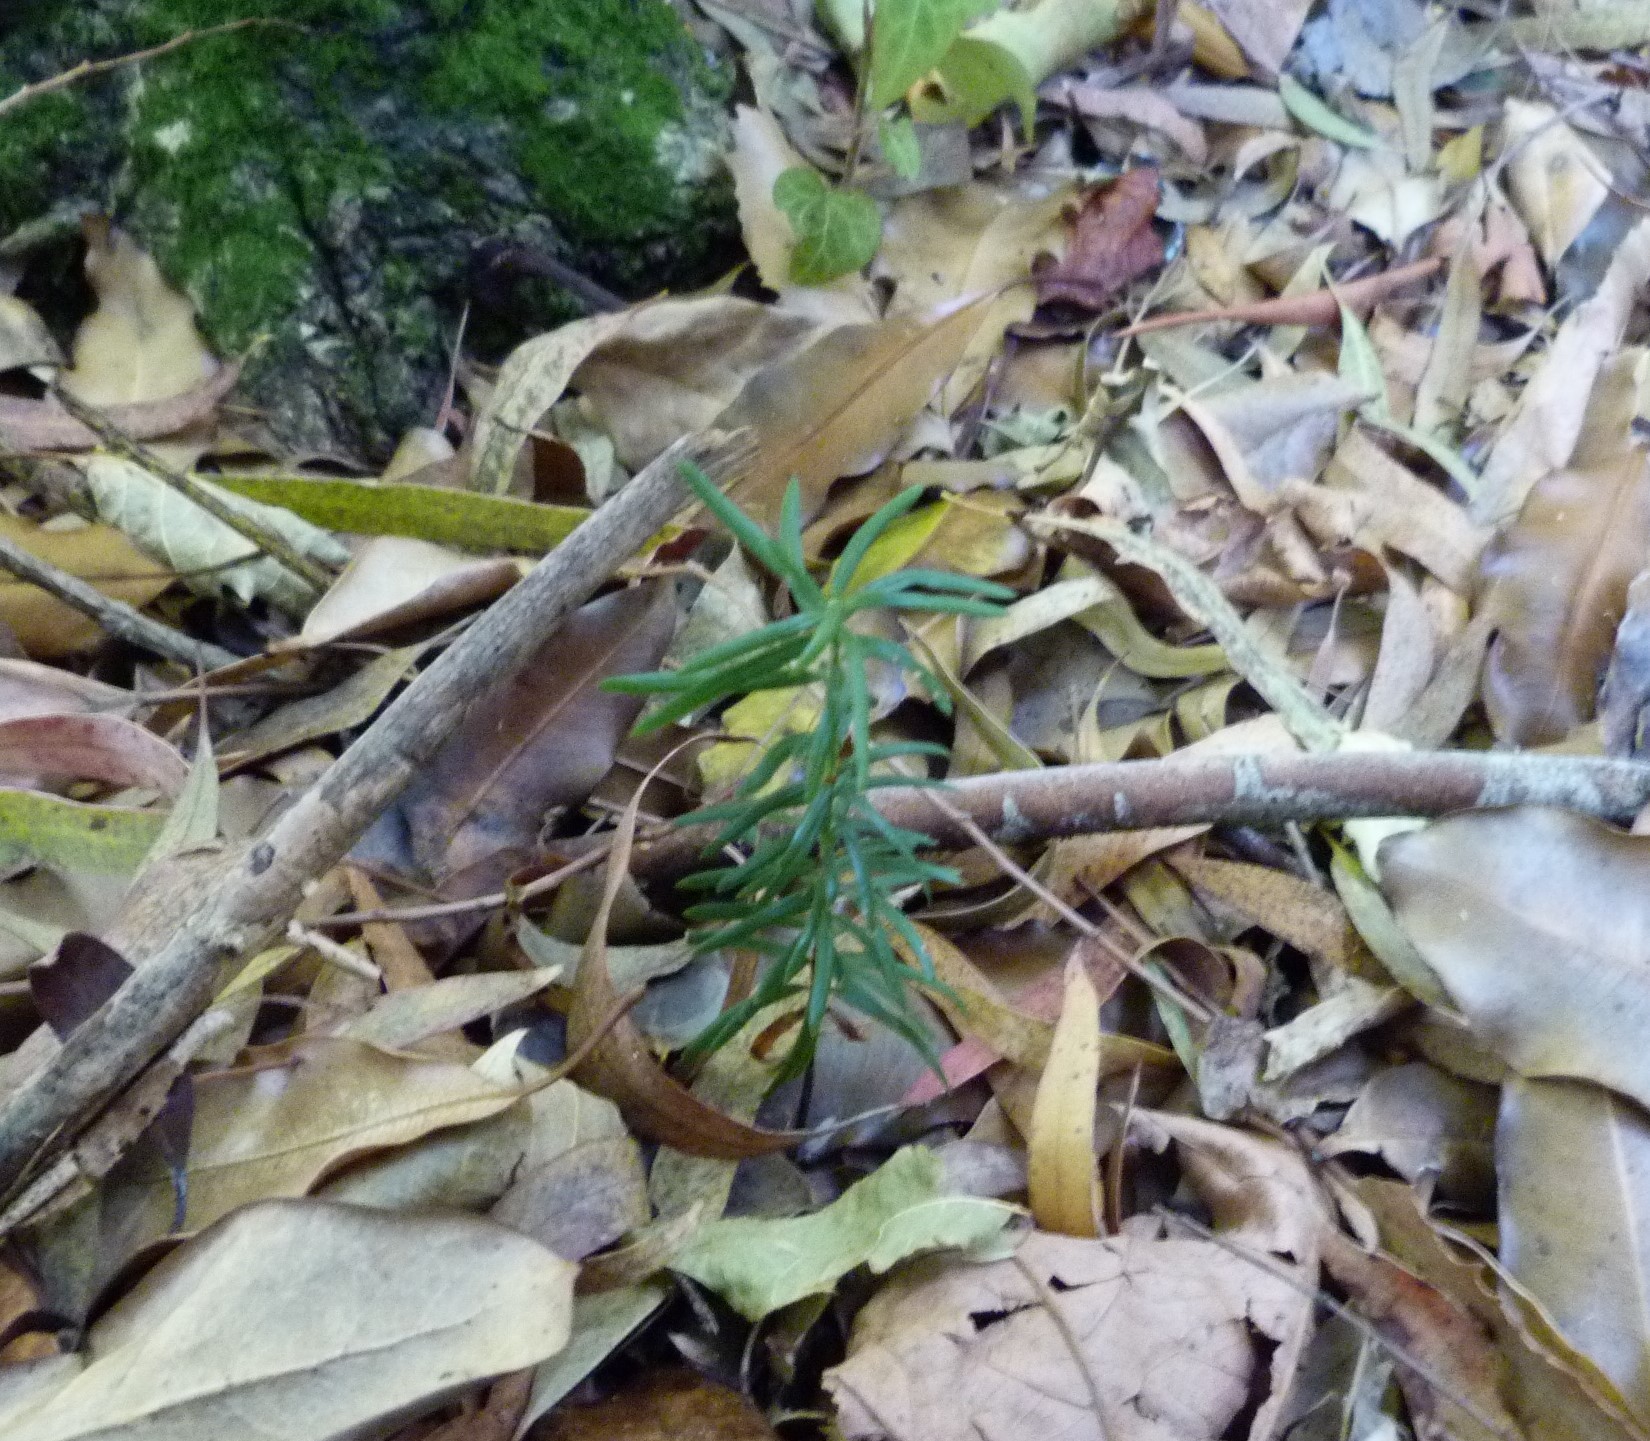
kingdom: Plantae
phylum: Tracheophyta
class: Pinopsida
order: Pinales
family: Podocarpaceae
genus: Podocarpus
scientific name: Podocarpus totara
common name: Totara
